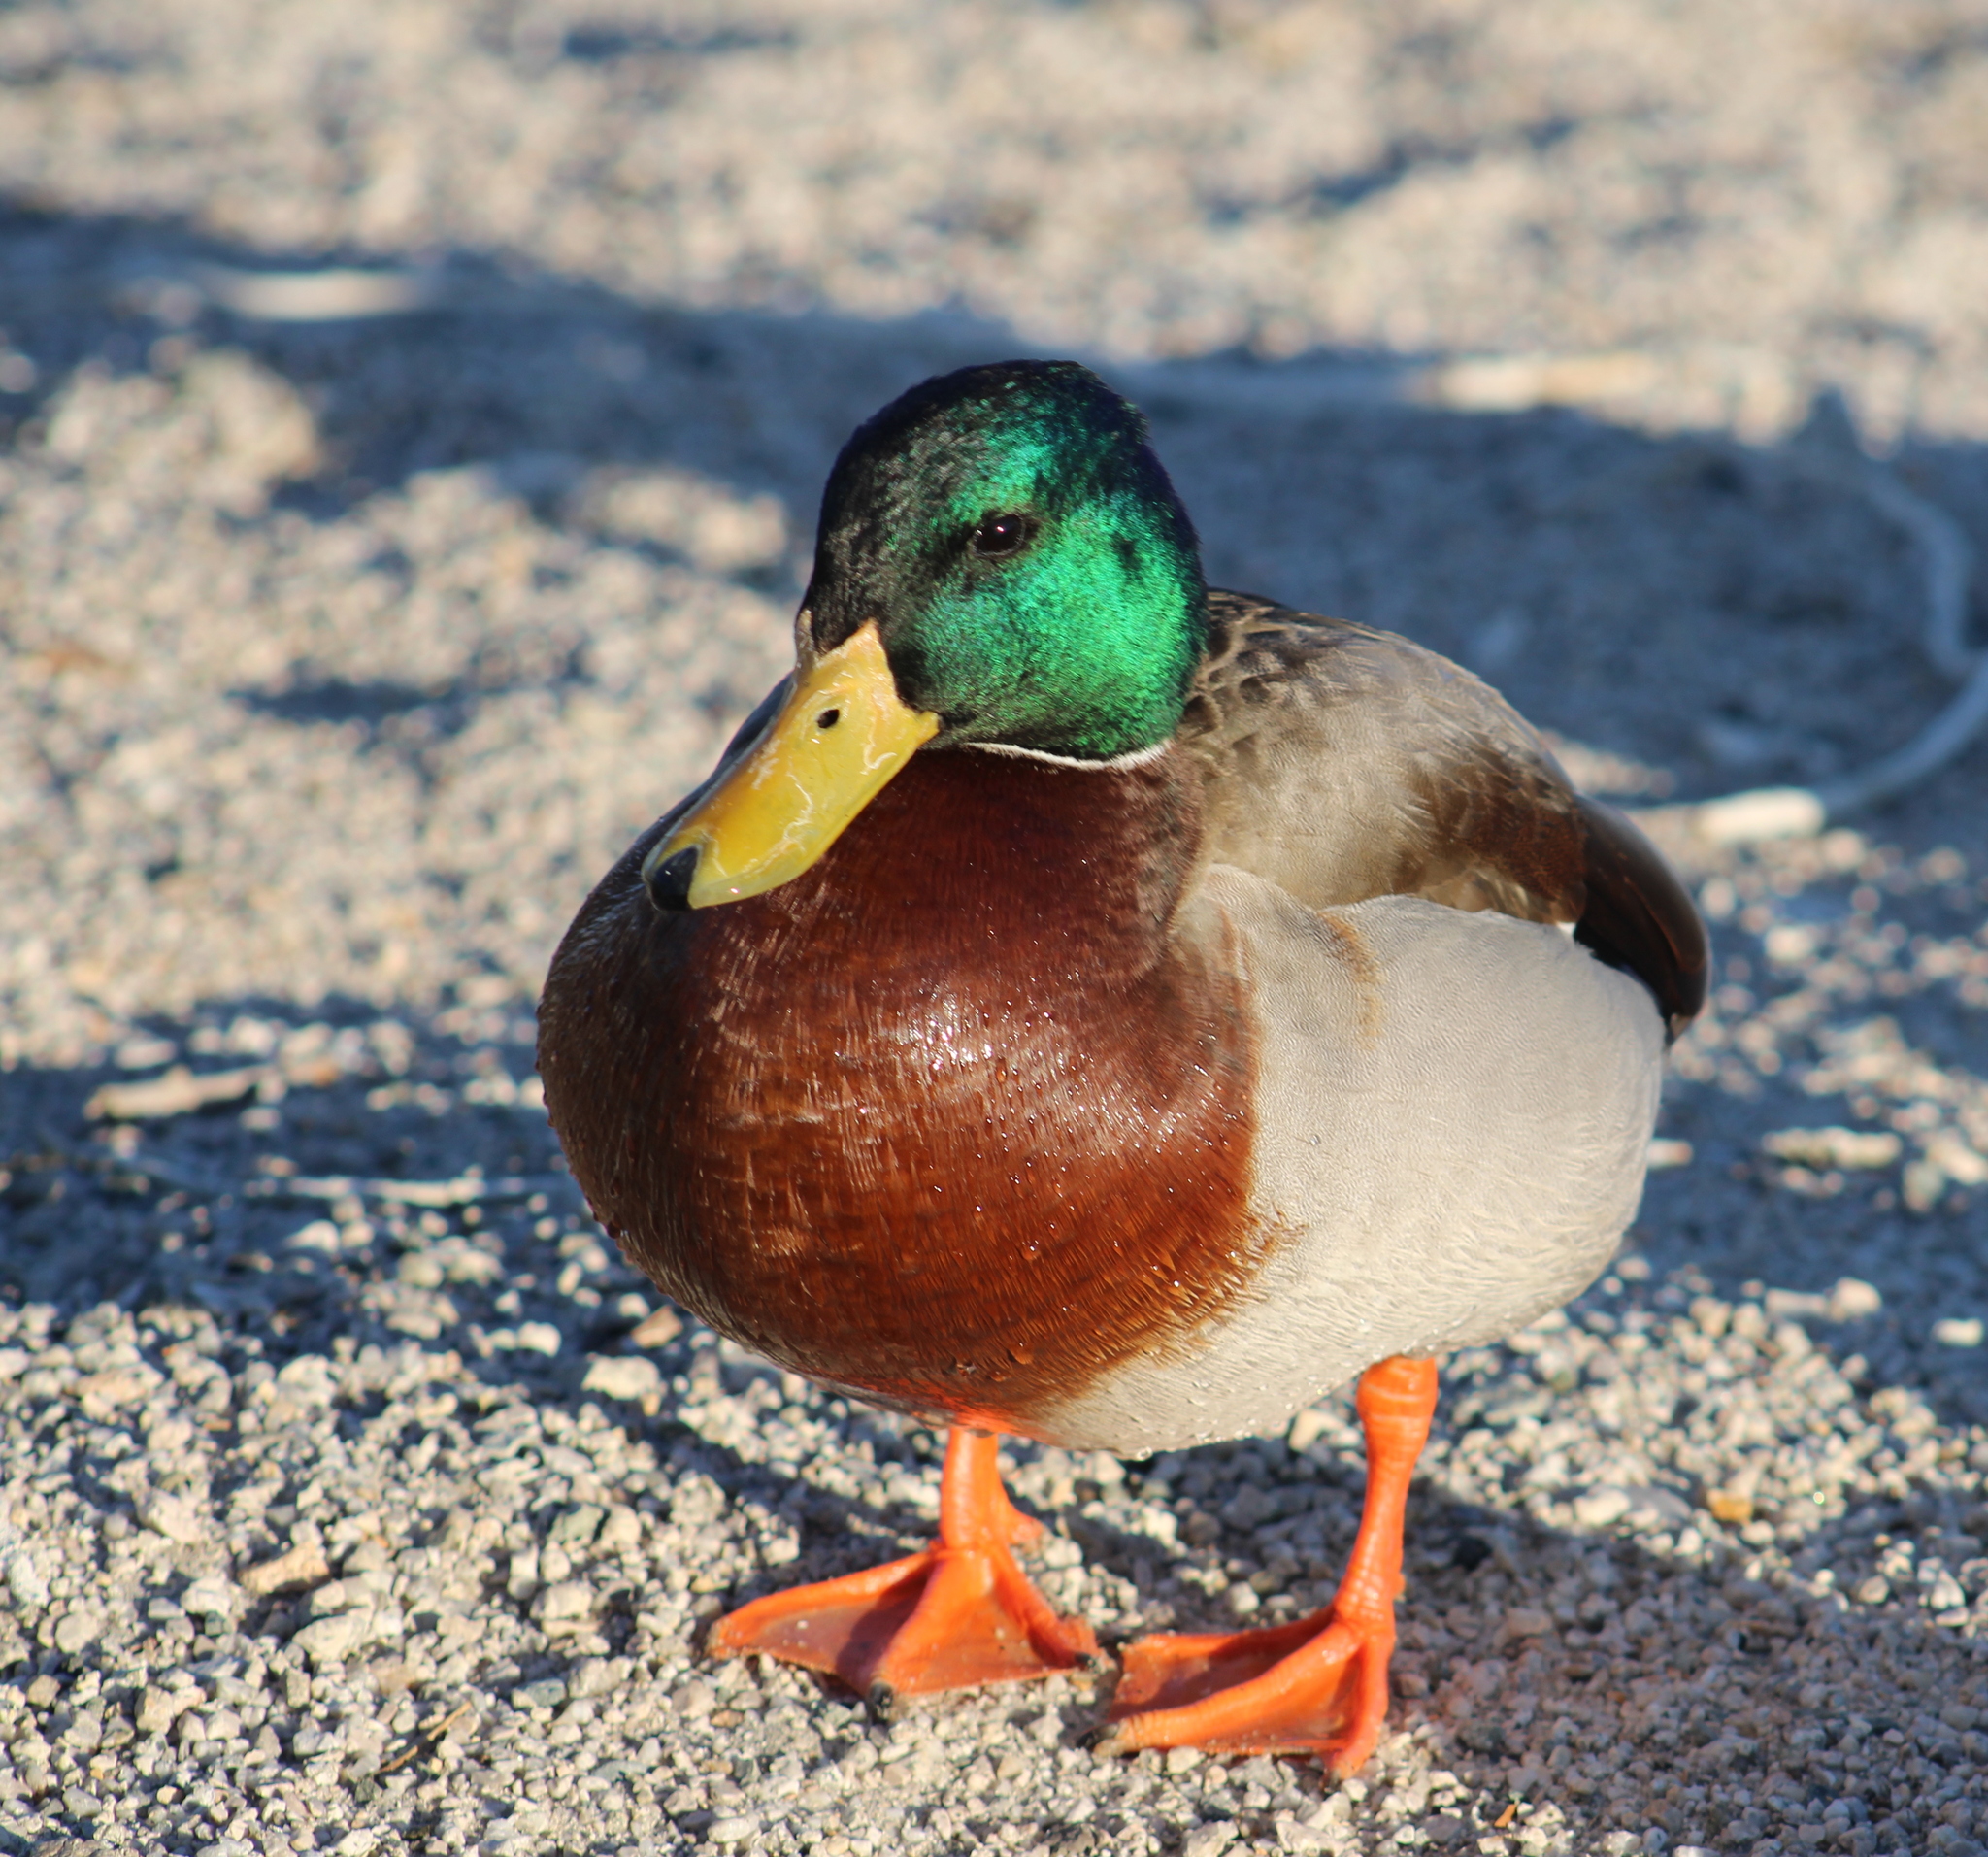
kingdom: Animalia
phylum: Chordata
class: Aves
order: Anseriformes
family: Anatidae
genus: Anas
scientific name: Anas platyrhynchos
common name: Mallard
